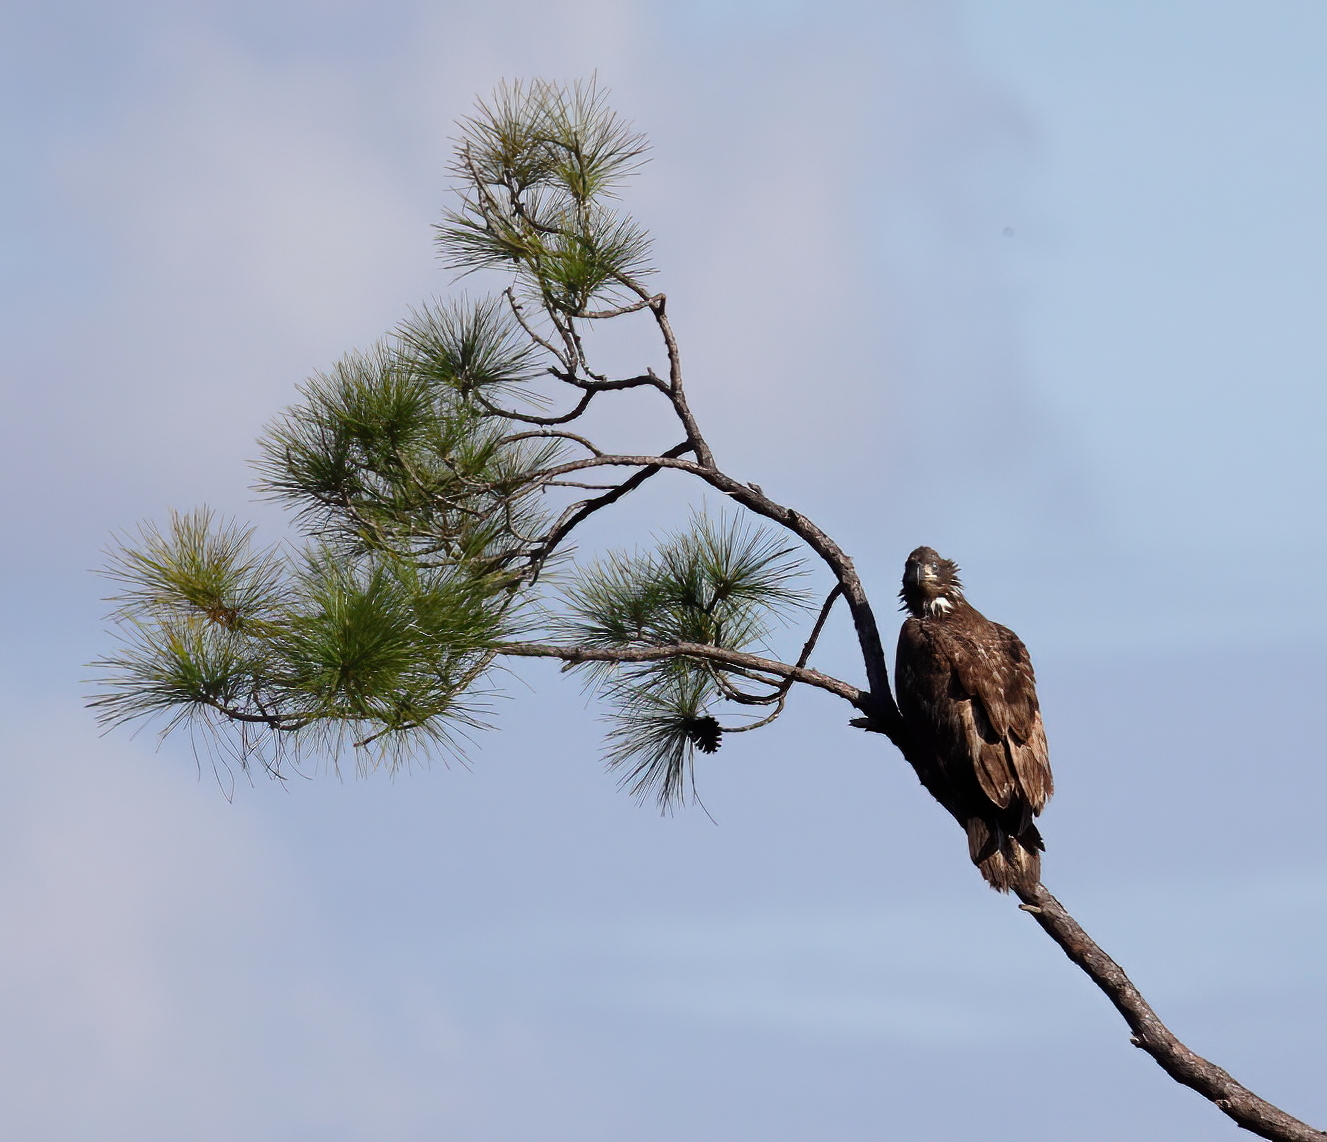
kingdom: Animalia
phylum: Chordata
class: Aves
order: Accipitriformes
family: Accipitridae
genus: Haliaeetus
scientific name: Haliaeetus leucocephalus
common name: Bald eagle
